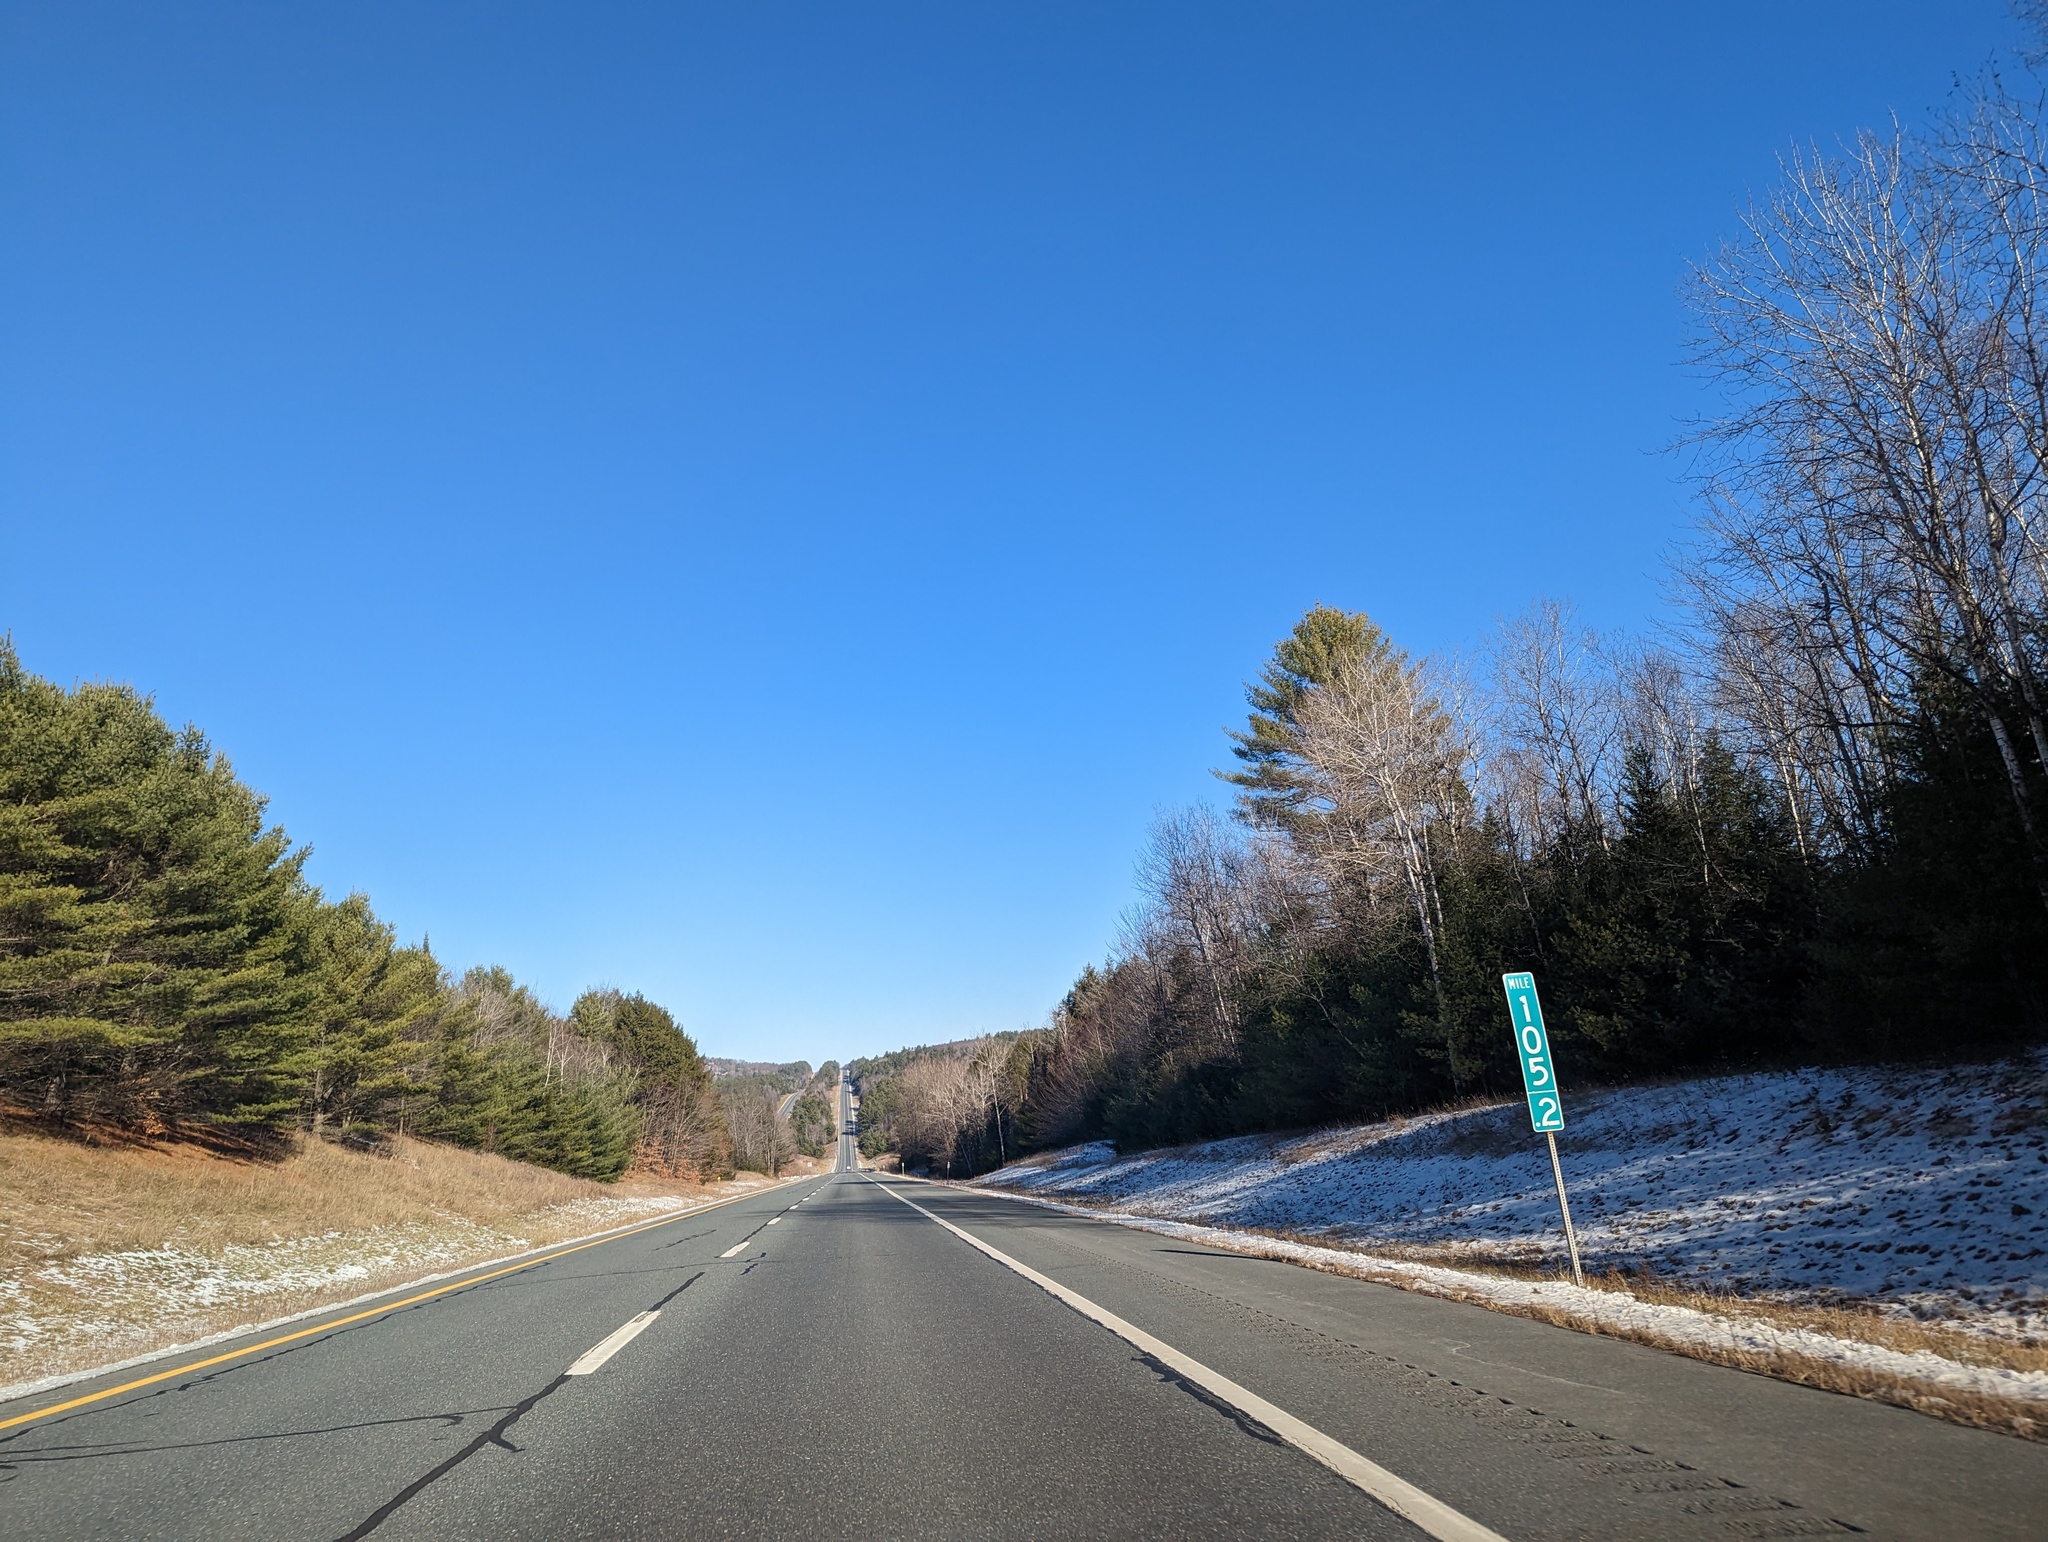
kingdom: Plantae
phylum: Tracheophyta
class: Pinopsida
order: Pinales
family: Pinaceae
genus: Pinus
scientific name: Pinus strobus
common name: Weymouth pine
